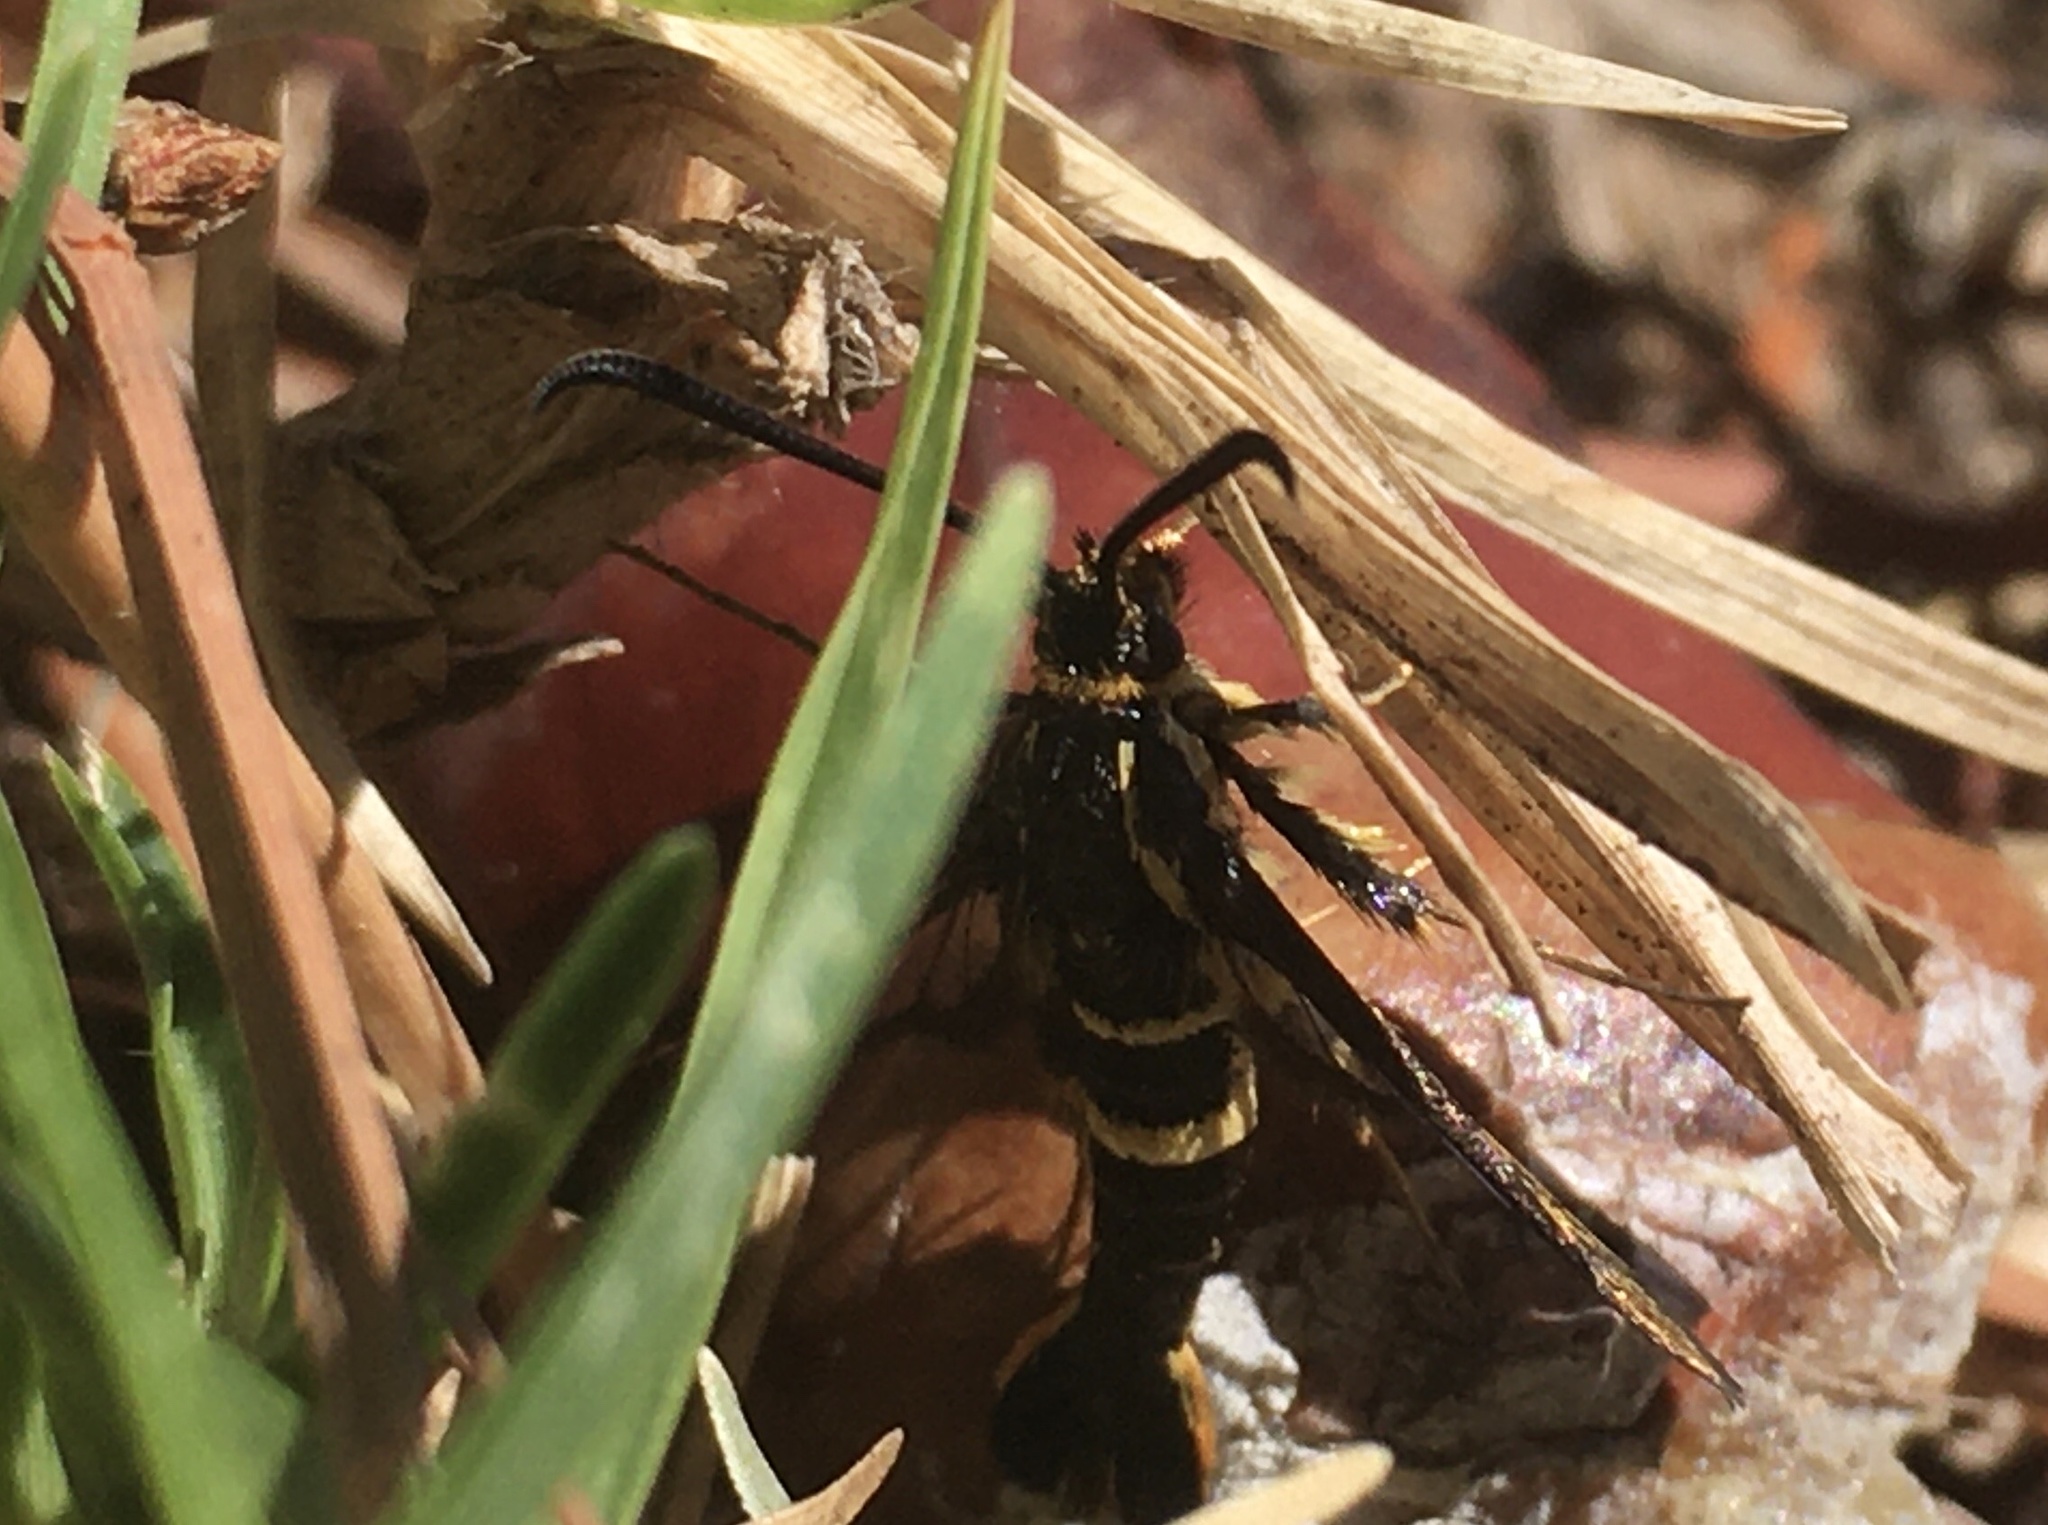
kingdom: Animalia
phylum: Arthropoda
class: Insecta
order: Lepidoptera
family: Sesiidae
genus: Synanthedon
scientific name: Synanthedon bibionipennis
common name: Strawberry crown moth
